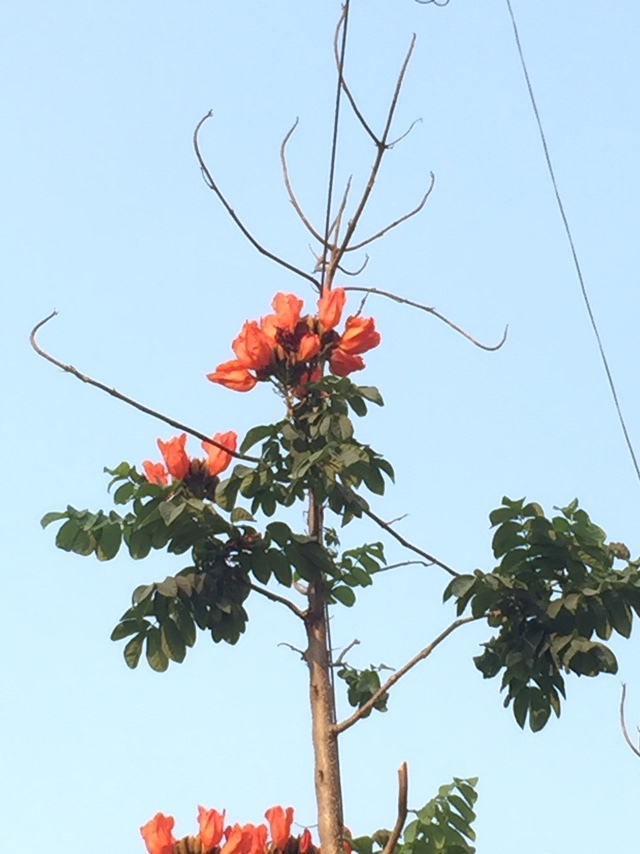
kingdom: Plantae
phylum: Tracheophyta
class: Magnoliopsida
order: Lamiales
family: Bignoniaceae
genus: Spathodea
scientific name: Spathodea campanulata
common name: African tuliptree
